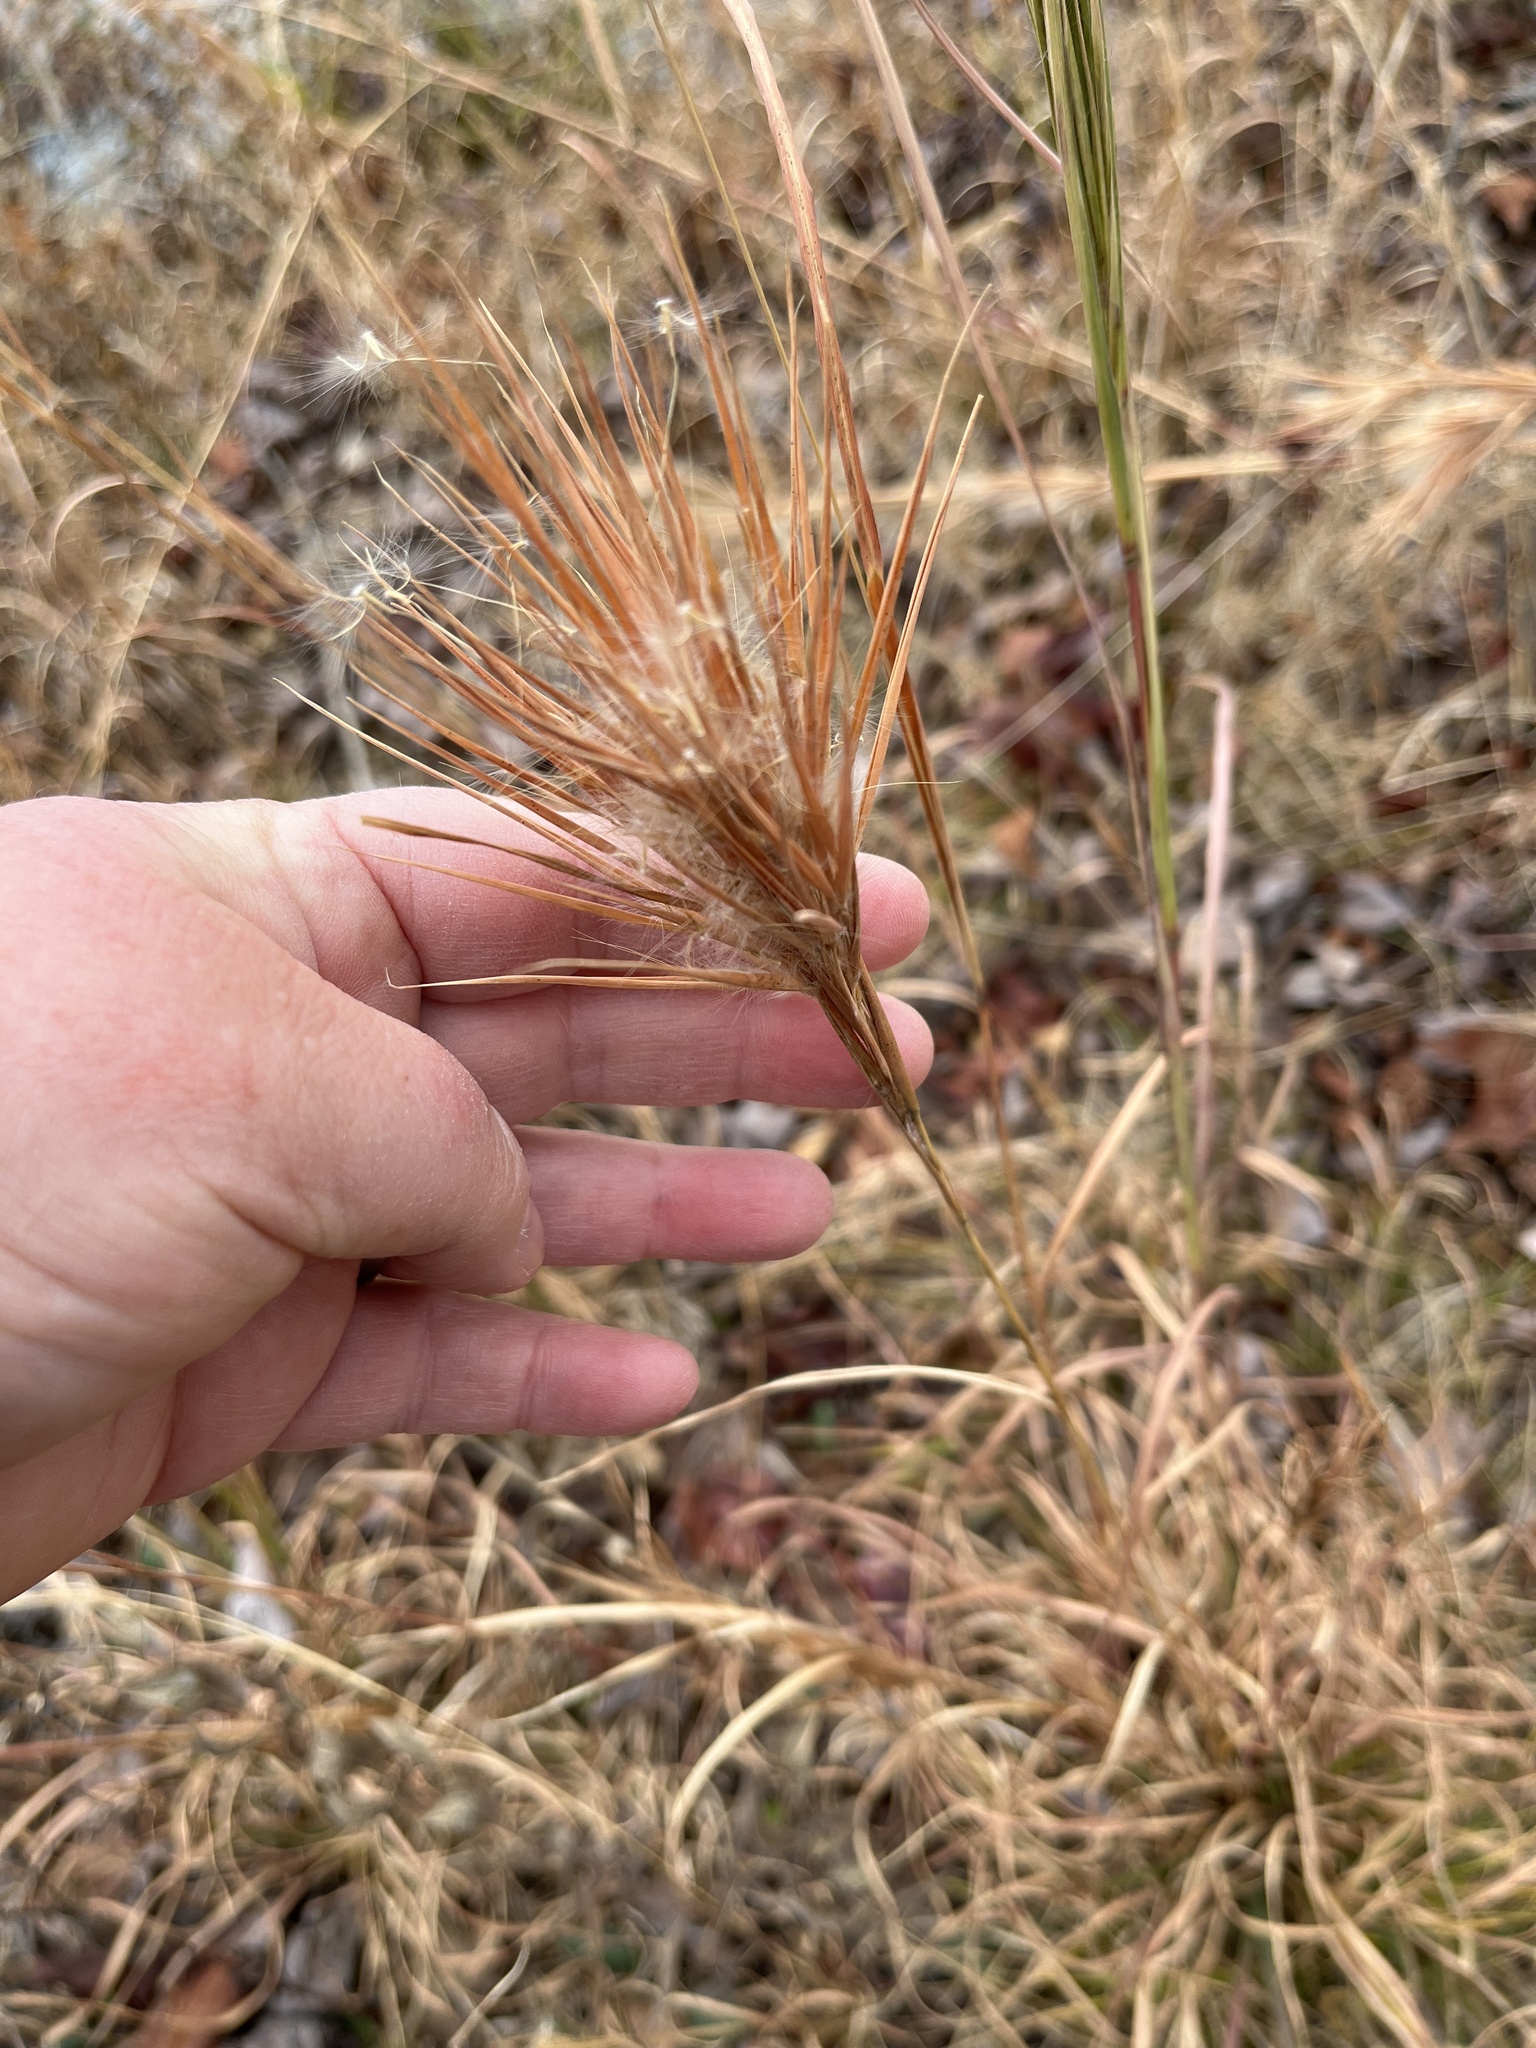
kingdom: Plantae
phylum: Tracheophyta
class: Liliopsida
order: Poales
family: Poaceae
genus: Andropogon
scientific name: Andropogon glomeratus
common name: Bushy beard grass
